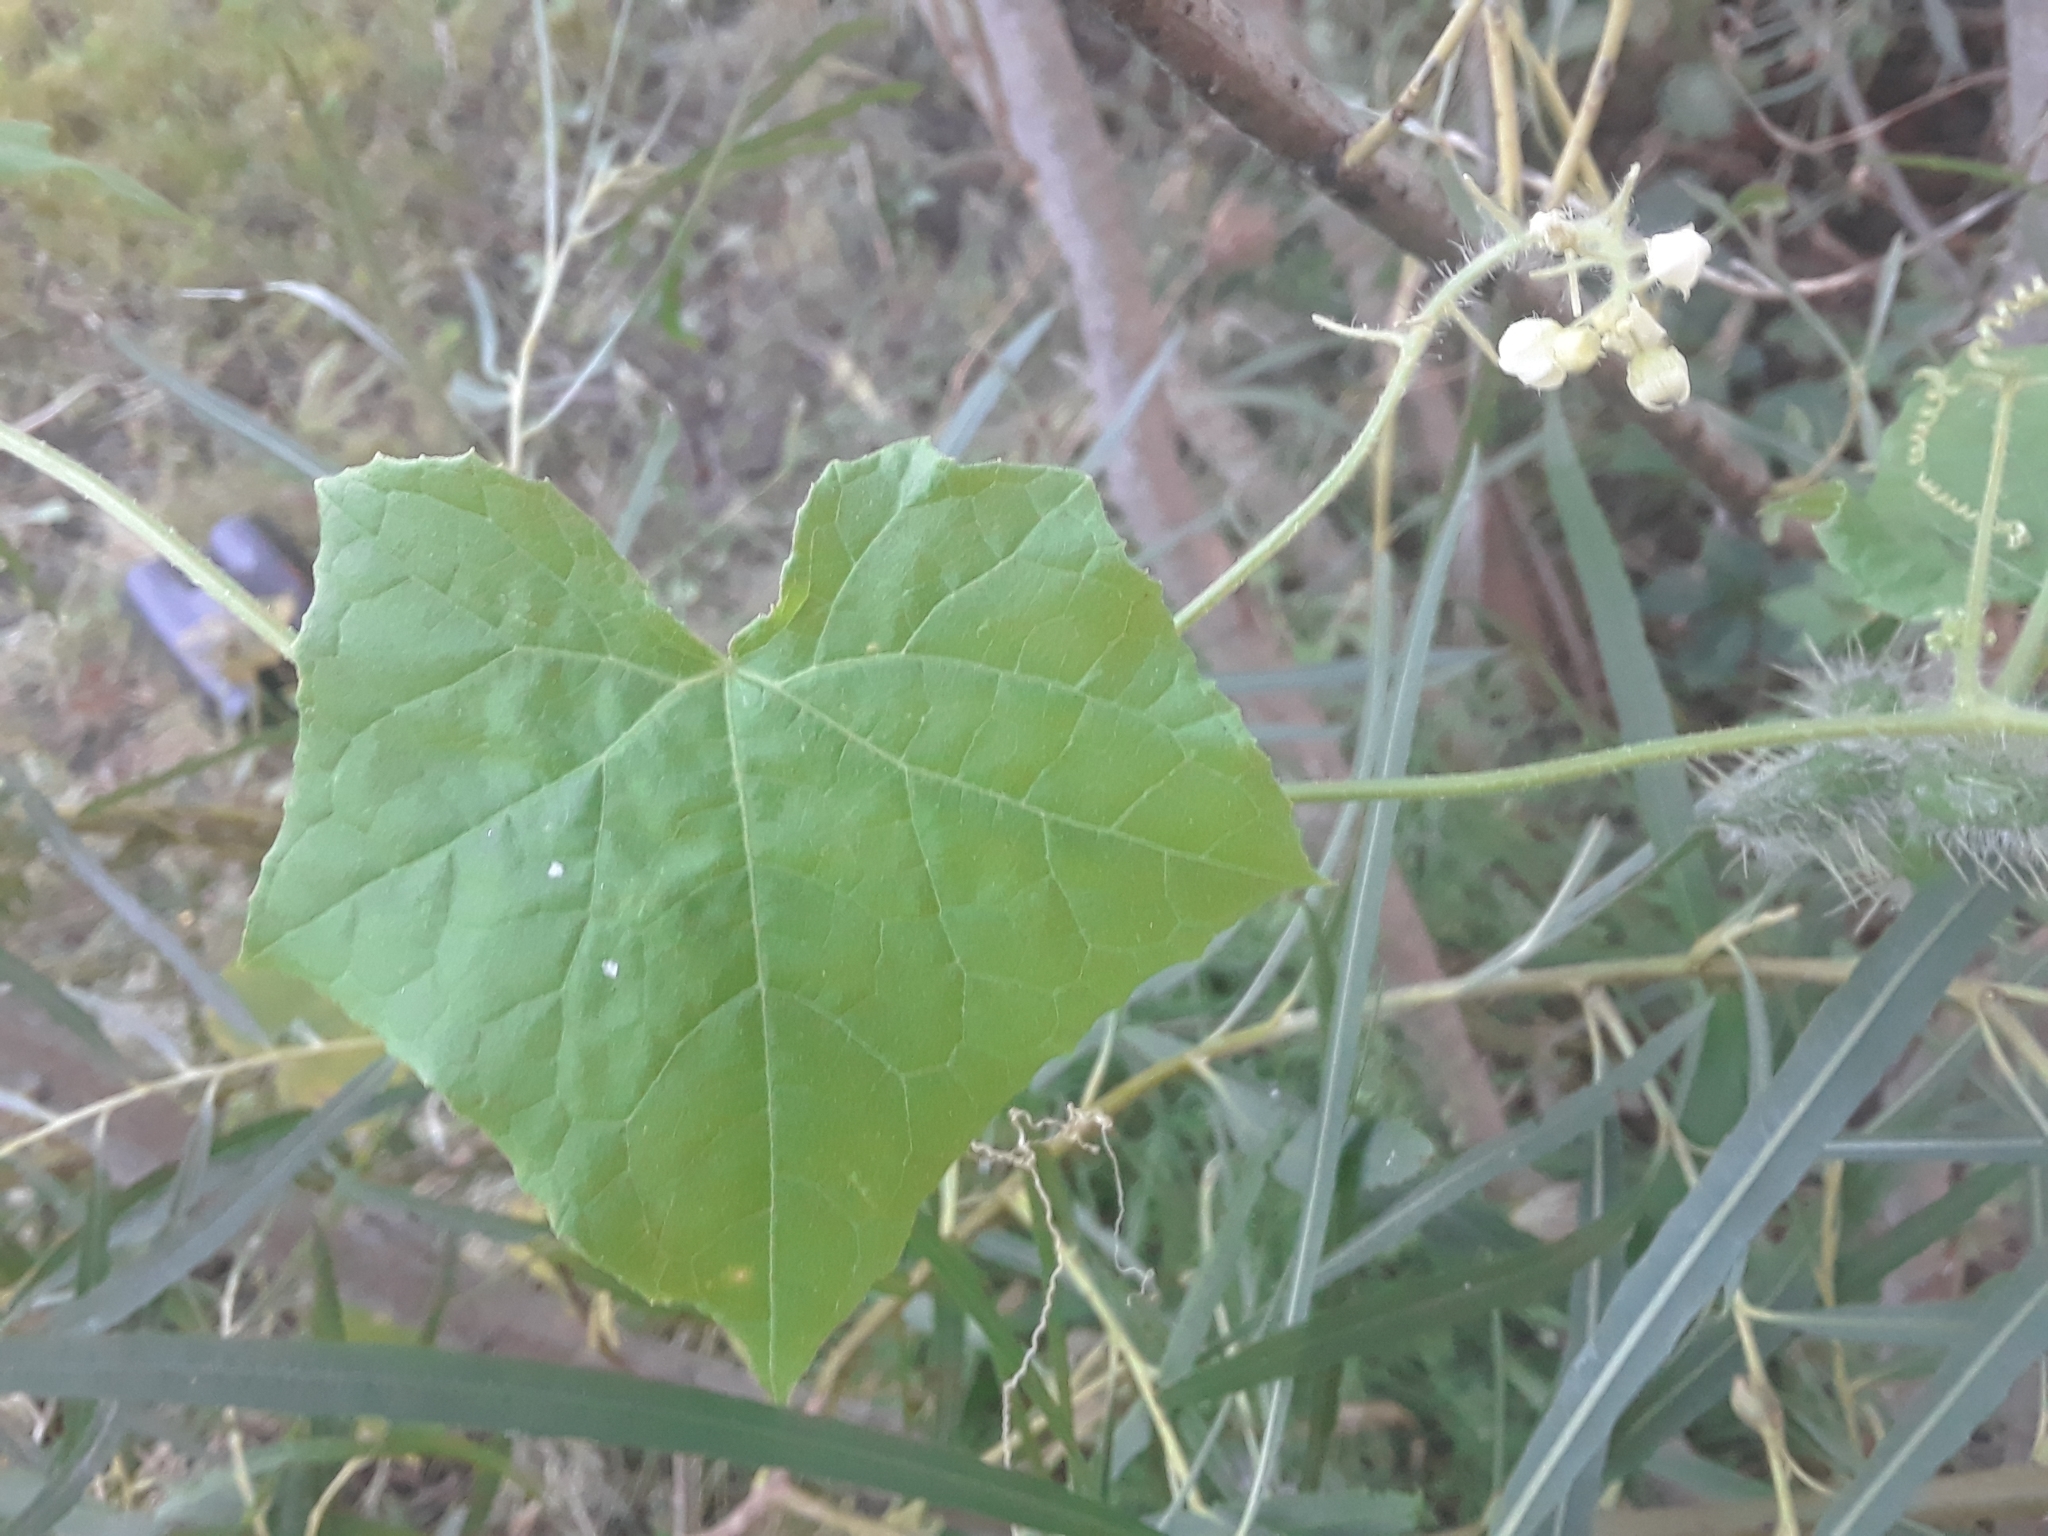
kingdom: Plantae
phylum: Tracheophyta
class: Magnoliopsida
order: Cucurbitales
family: Cucurbitaceae
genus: Sicyos
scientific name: Sicyos angulatus
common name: Angled burr cucumber
